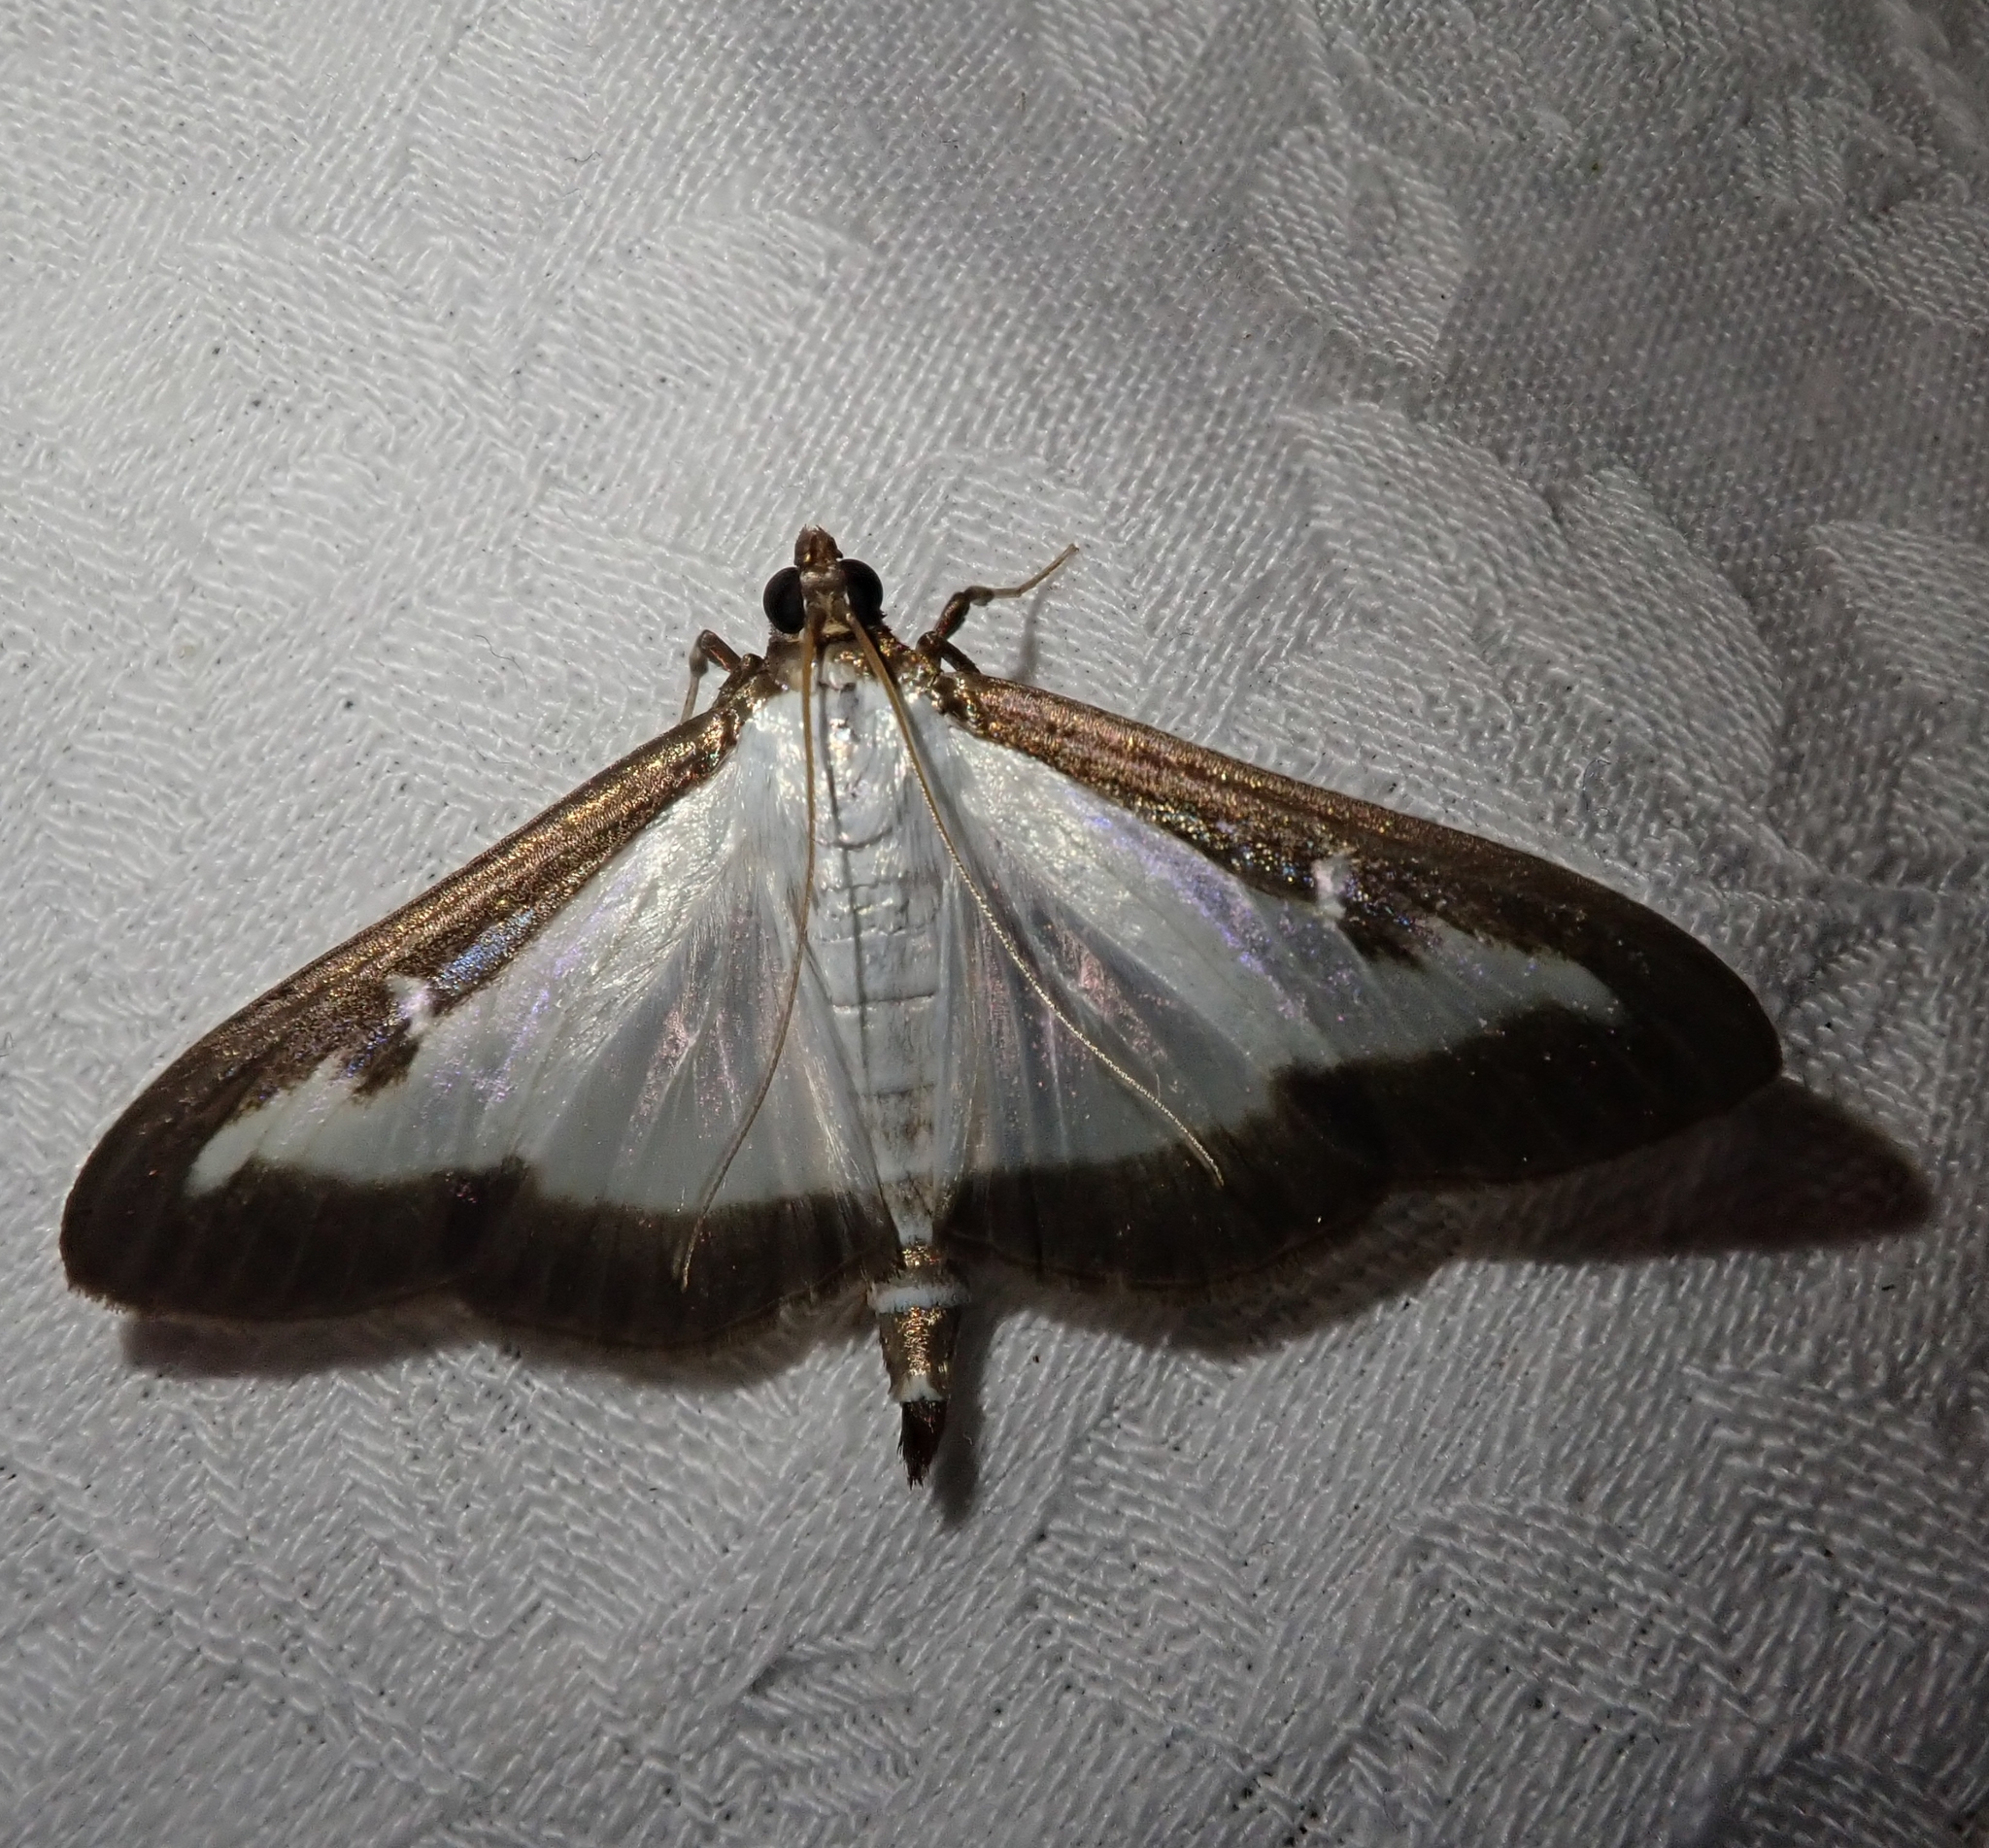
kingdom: Animalia
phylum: Arthropoda
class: Insecta
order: Lepidoptera
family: Crambidae
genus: Cydalima
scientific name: Cydalima perspectalis
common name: Box tree moth
